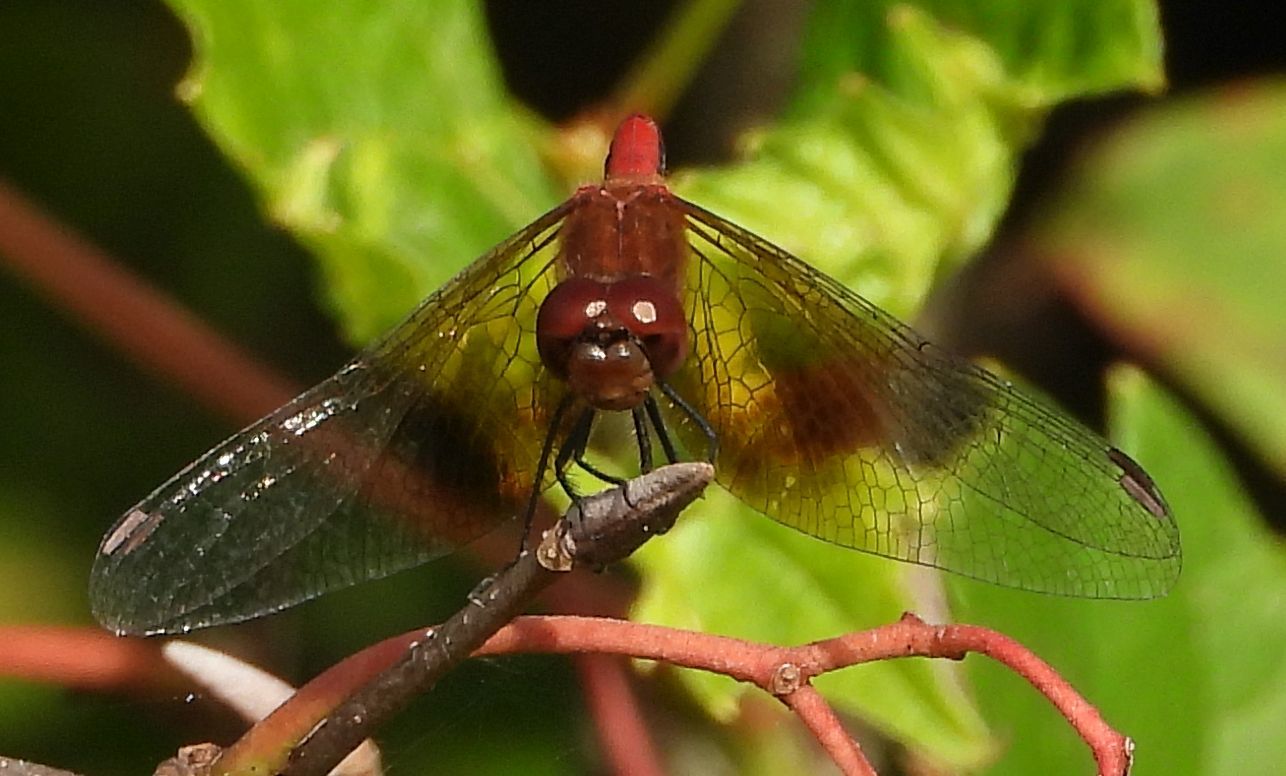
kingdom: Animalia
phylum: Arthropoda
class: Insecta
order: Odonata
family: Libellulidae
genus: Sympetrum
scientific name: Sympetrum semicinctum
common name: Band-winged meadowhawk
